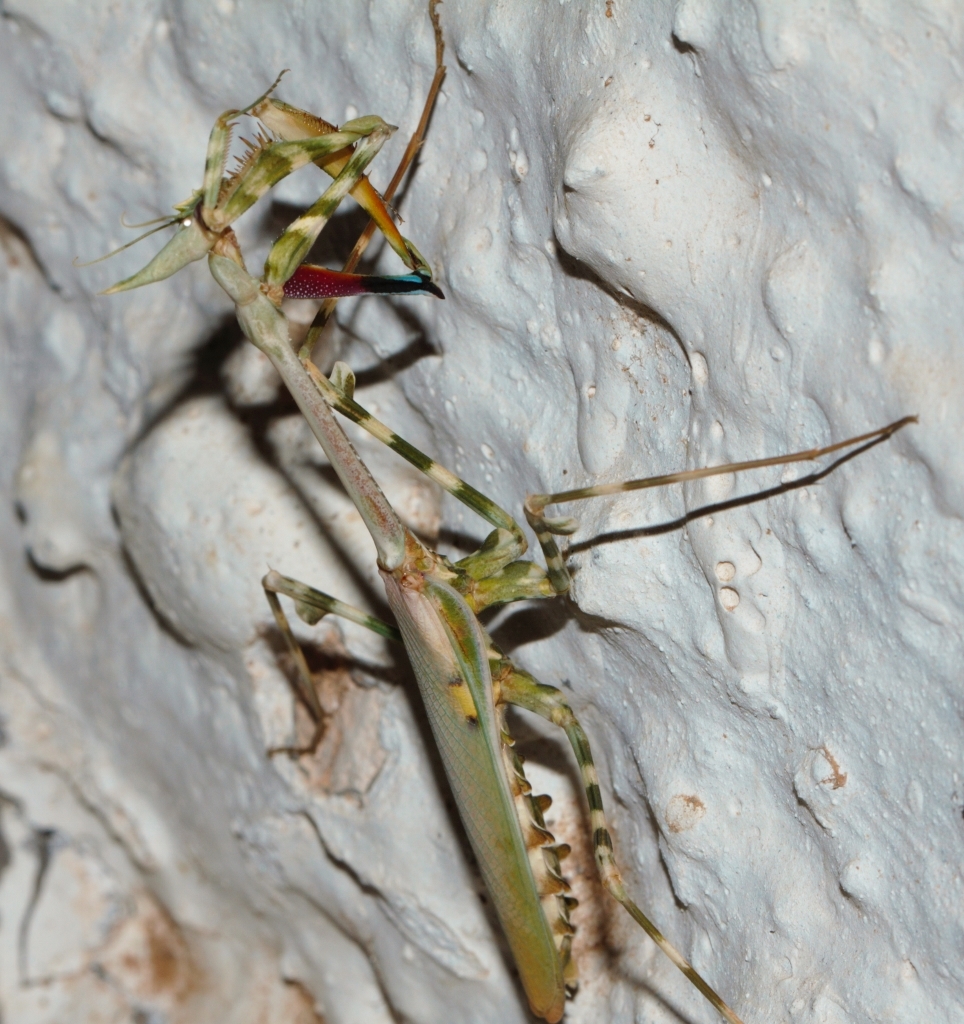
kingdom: Animalia
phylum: Arthropoda
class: Insecta
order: Mantodea
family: Empusidae
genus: Empusa
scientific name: Empusa binotata
